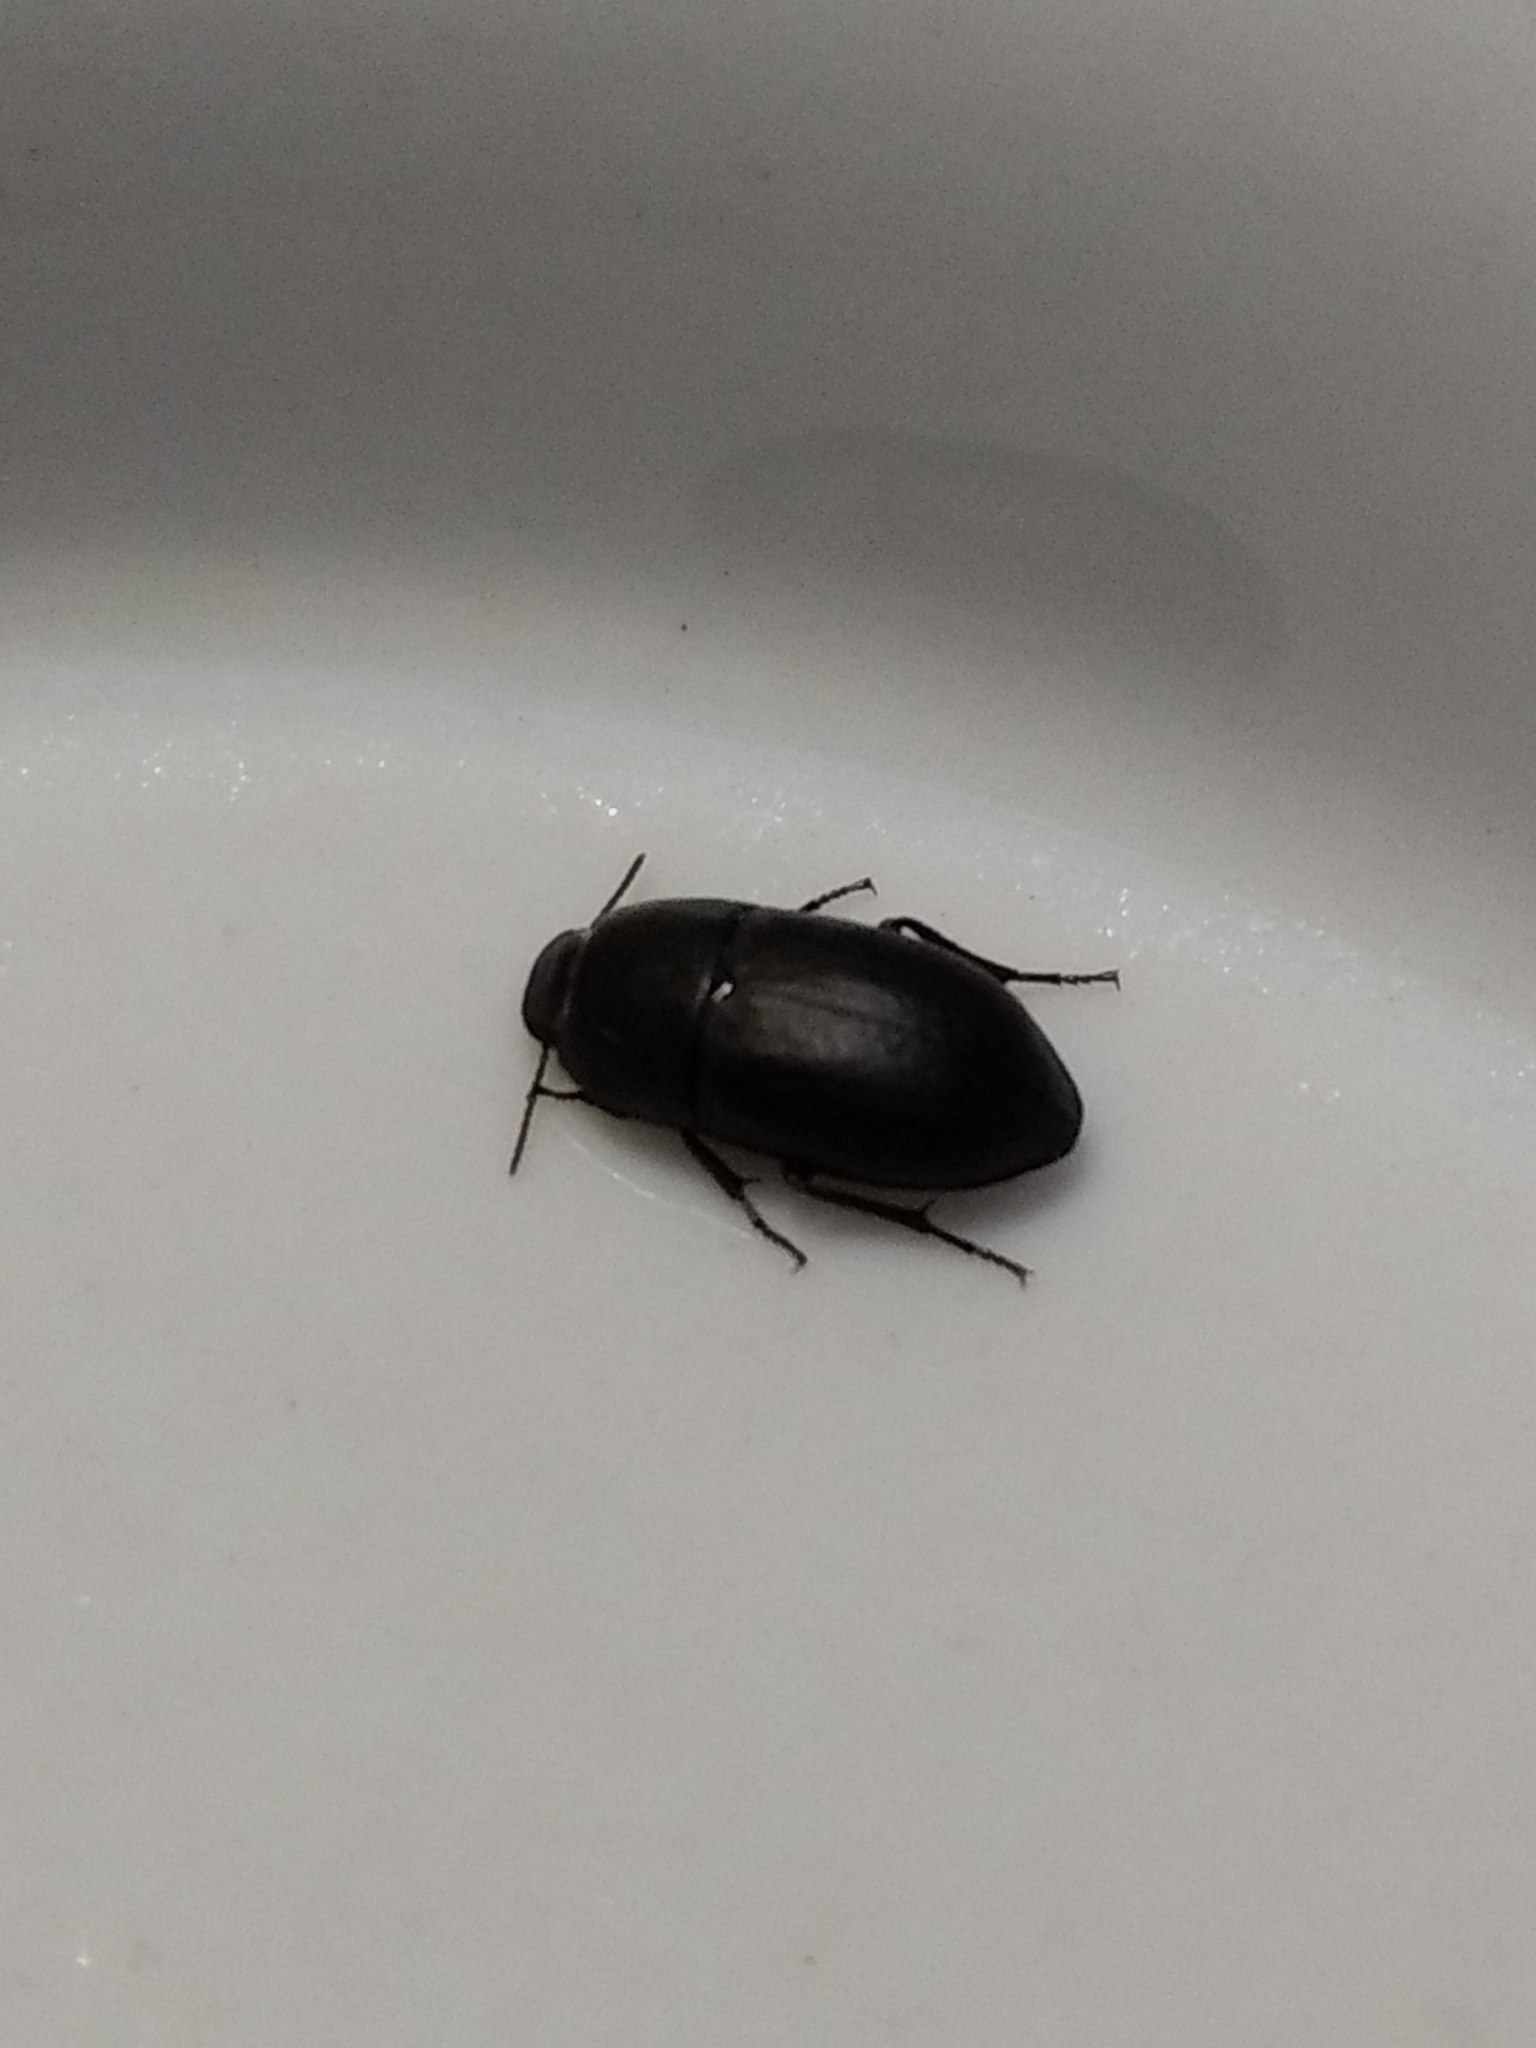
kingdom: Animalia
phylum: Arthropoda
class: Insecta
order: Coleoptera
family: Tenebrionidae
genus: Coniontis
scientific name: Coniontis
